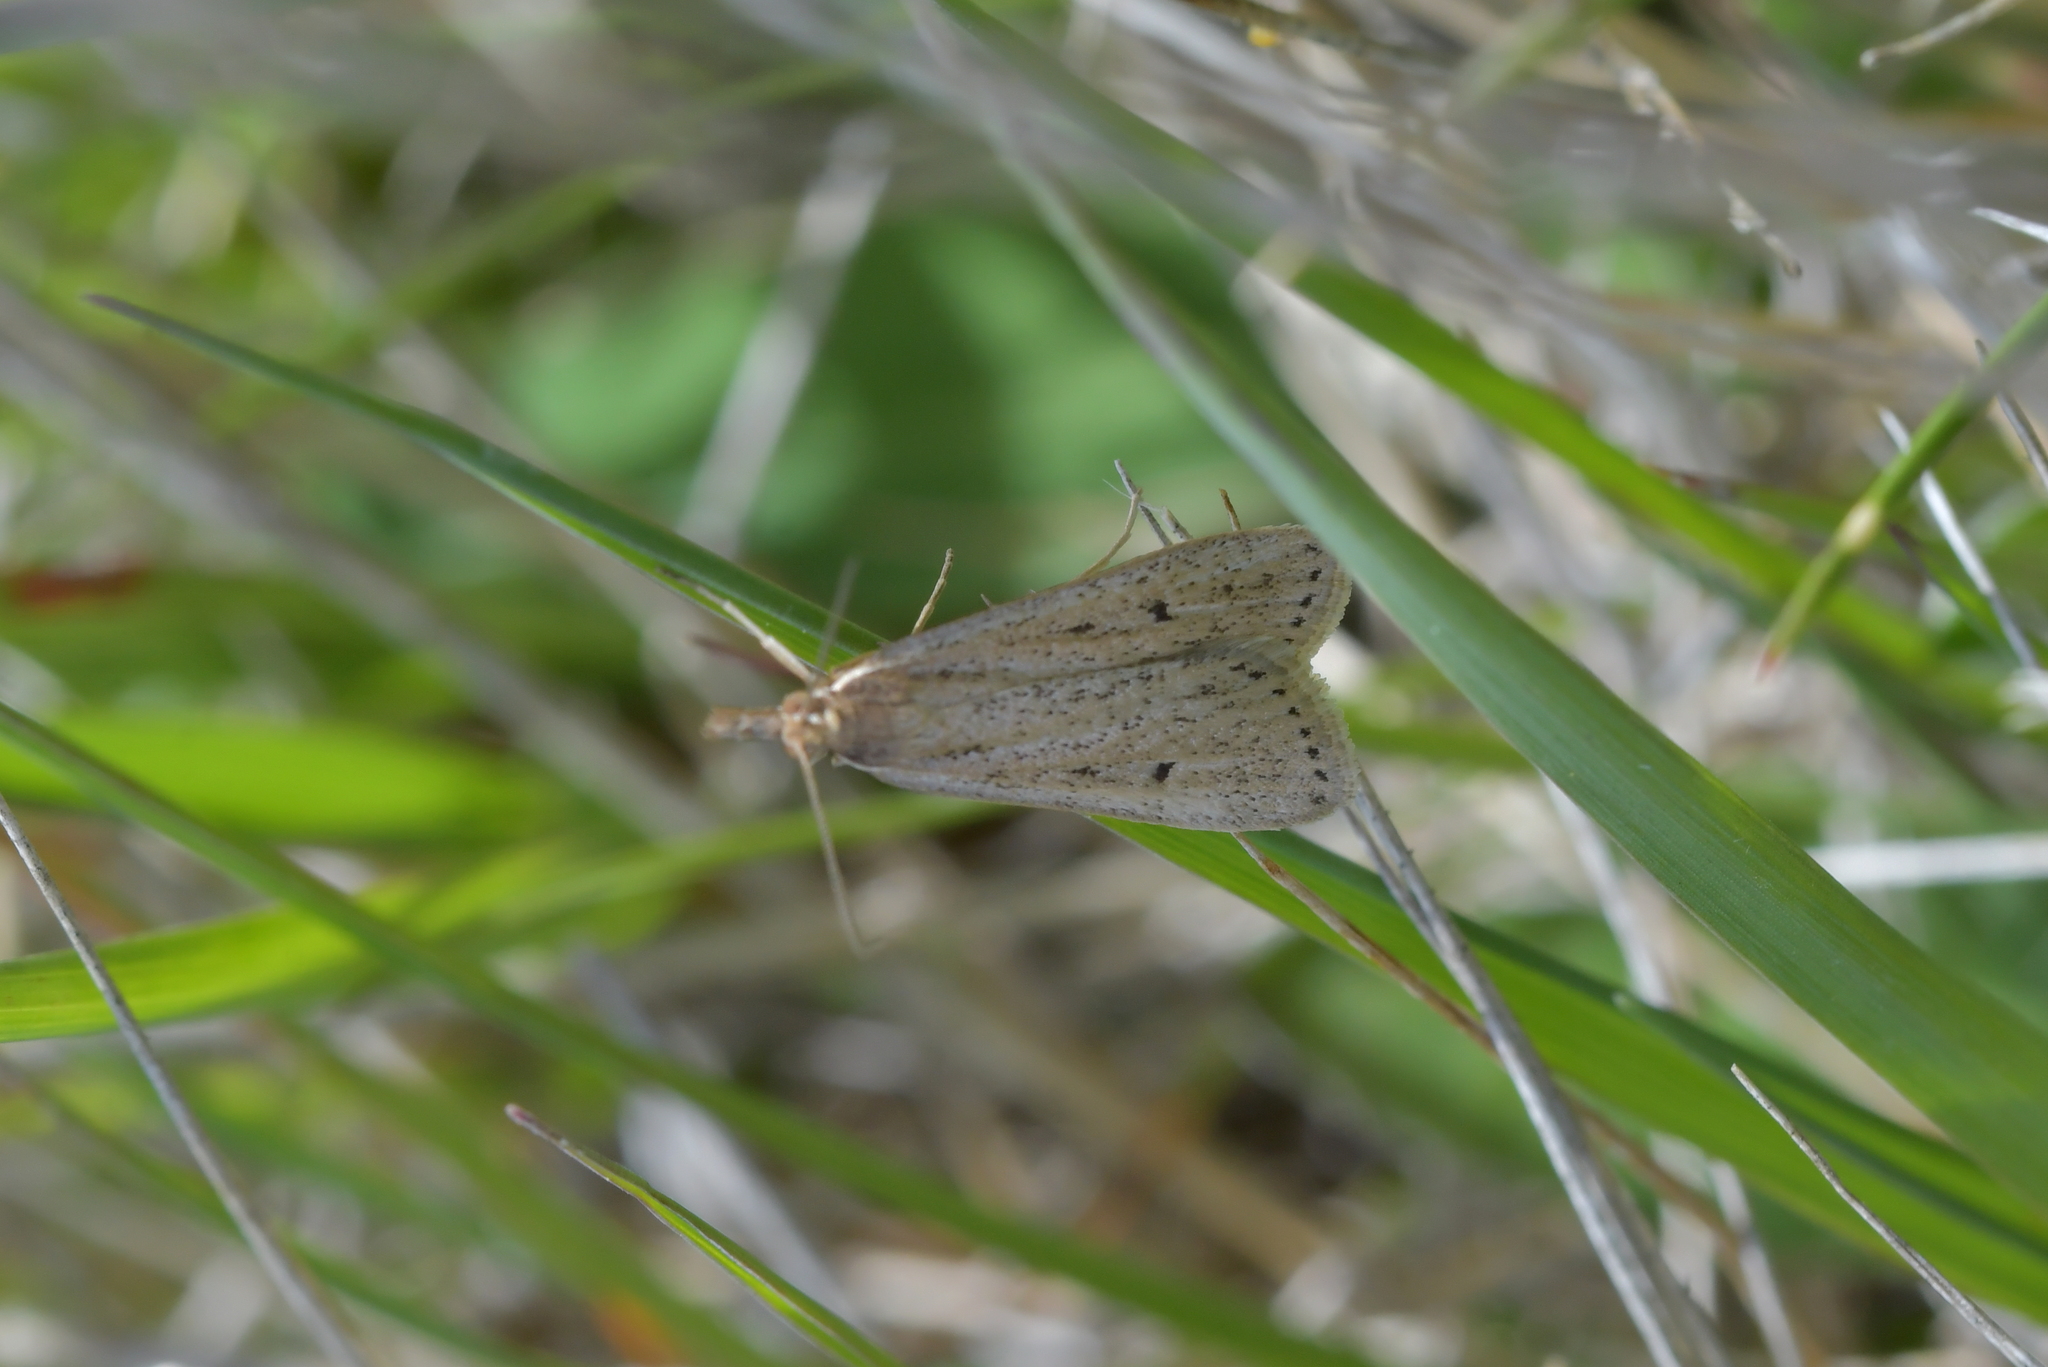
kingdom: Animalia
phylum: Arthropoda
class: Insecta
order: Lepidoptera
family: Crambidae
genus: Eudonia
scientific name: Eudonia sabulosella
